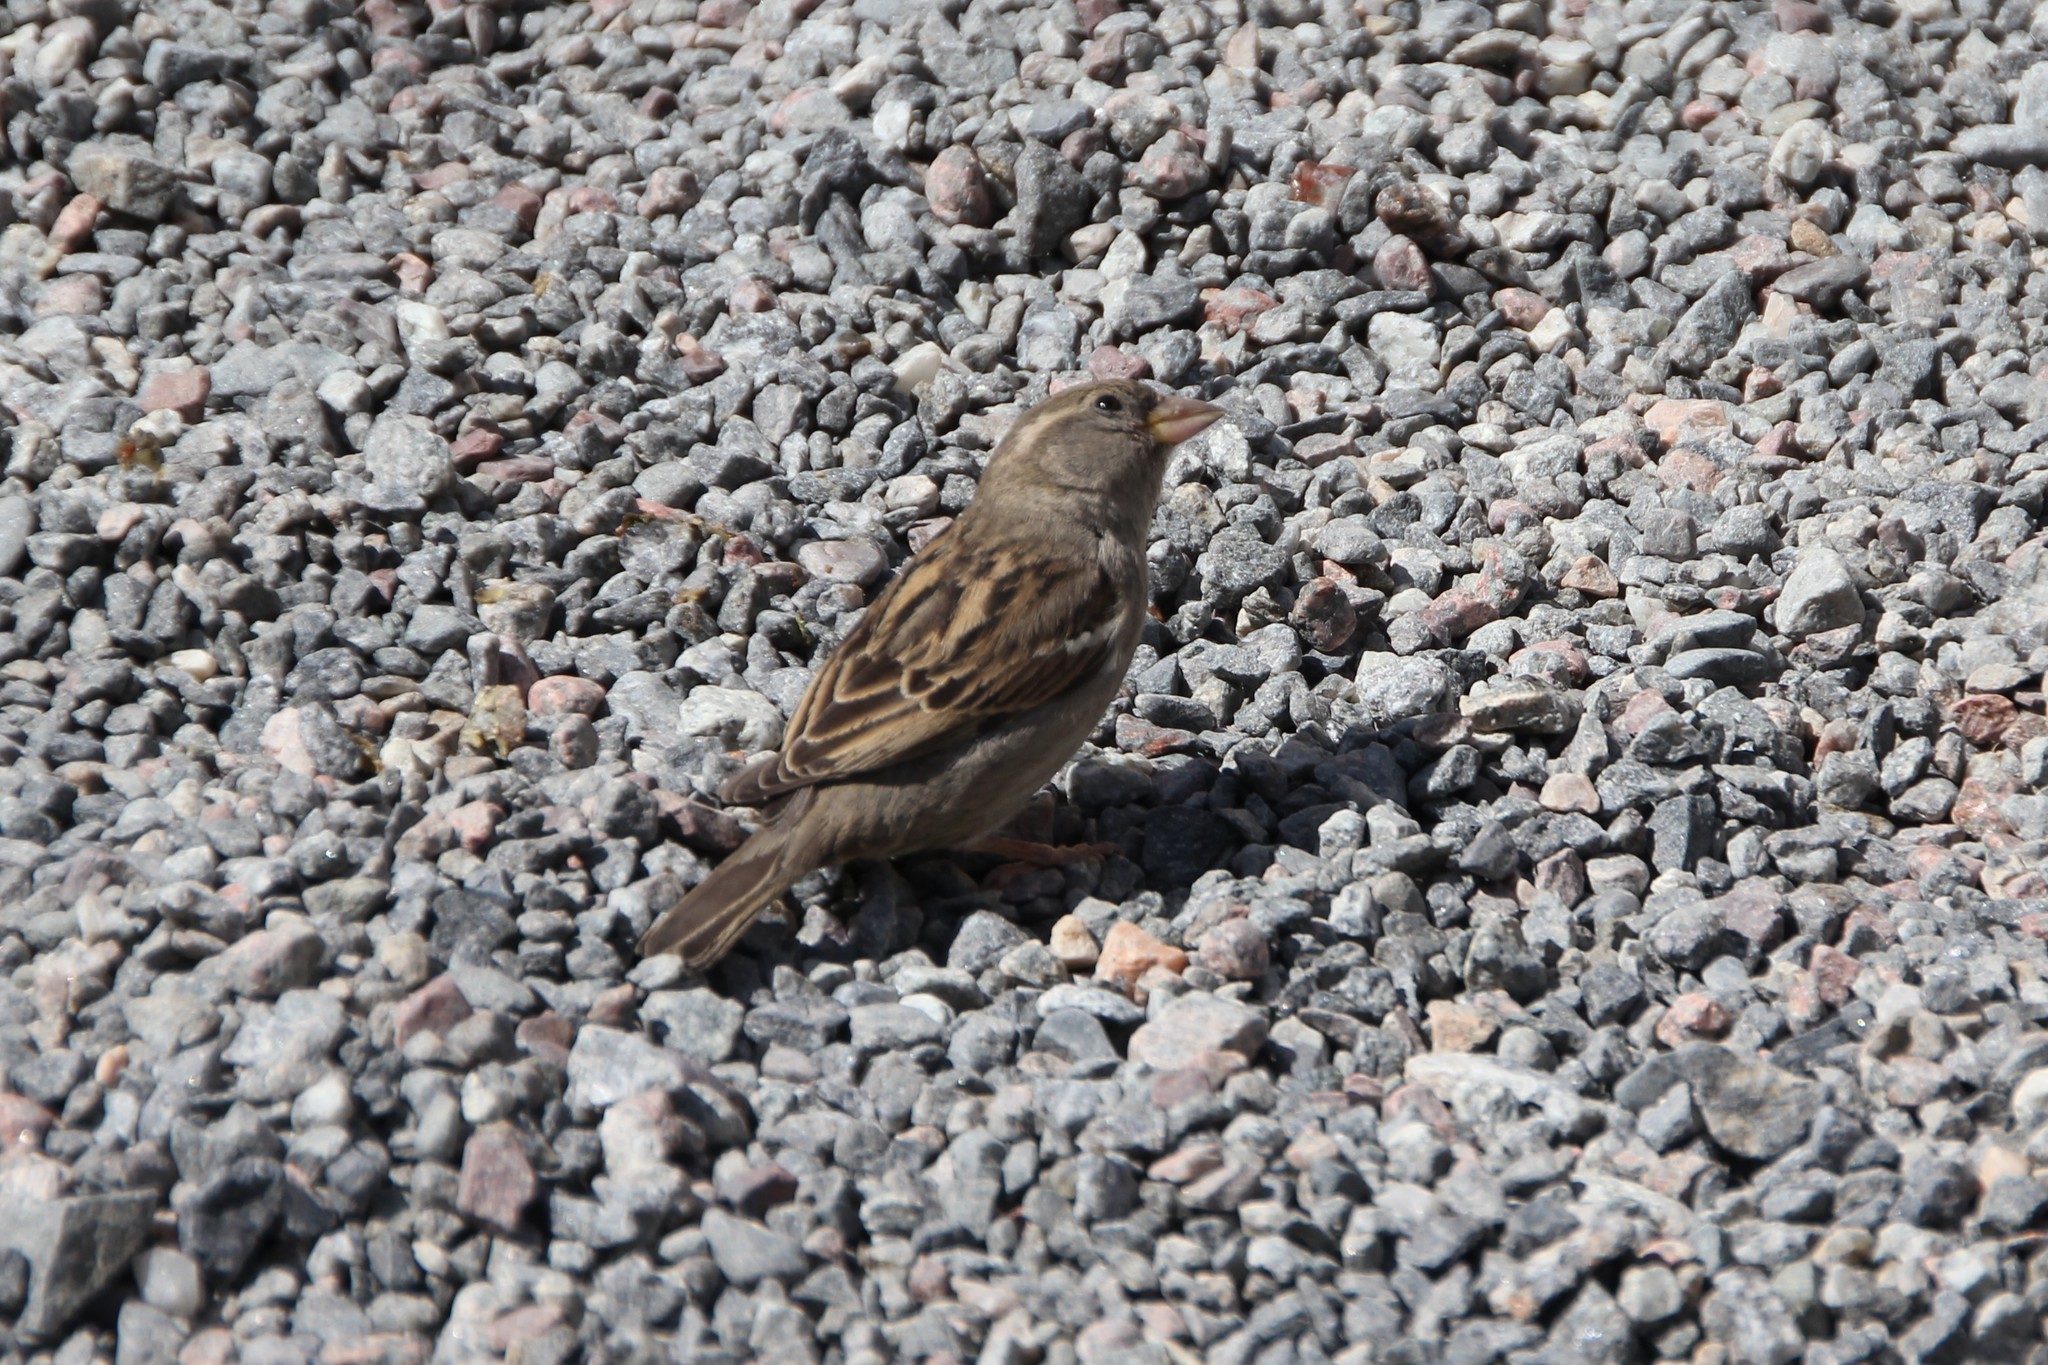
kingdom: Animalia
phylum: Chordata
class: Aves
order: Passeriformes
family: Passeridae
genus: Passer
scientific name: Passer domesticus
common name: House sparrow
